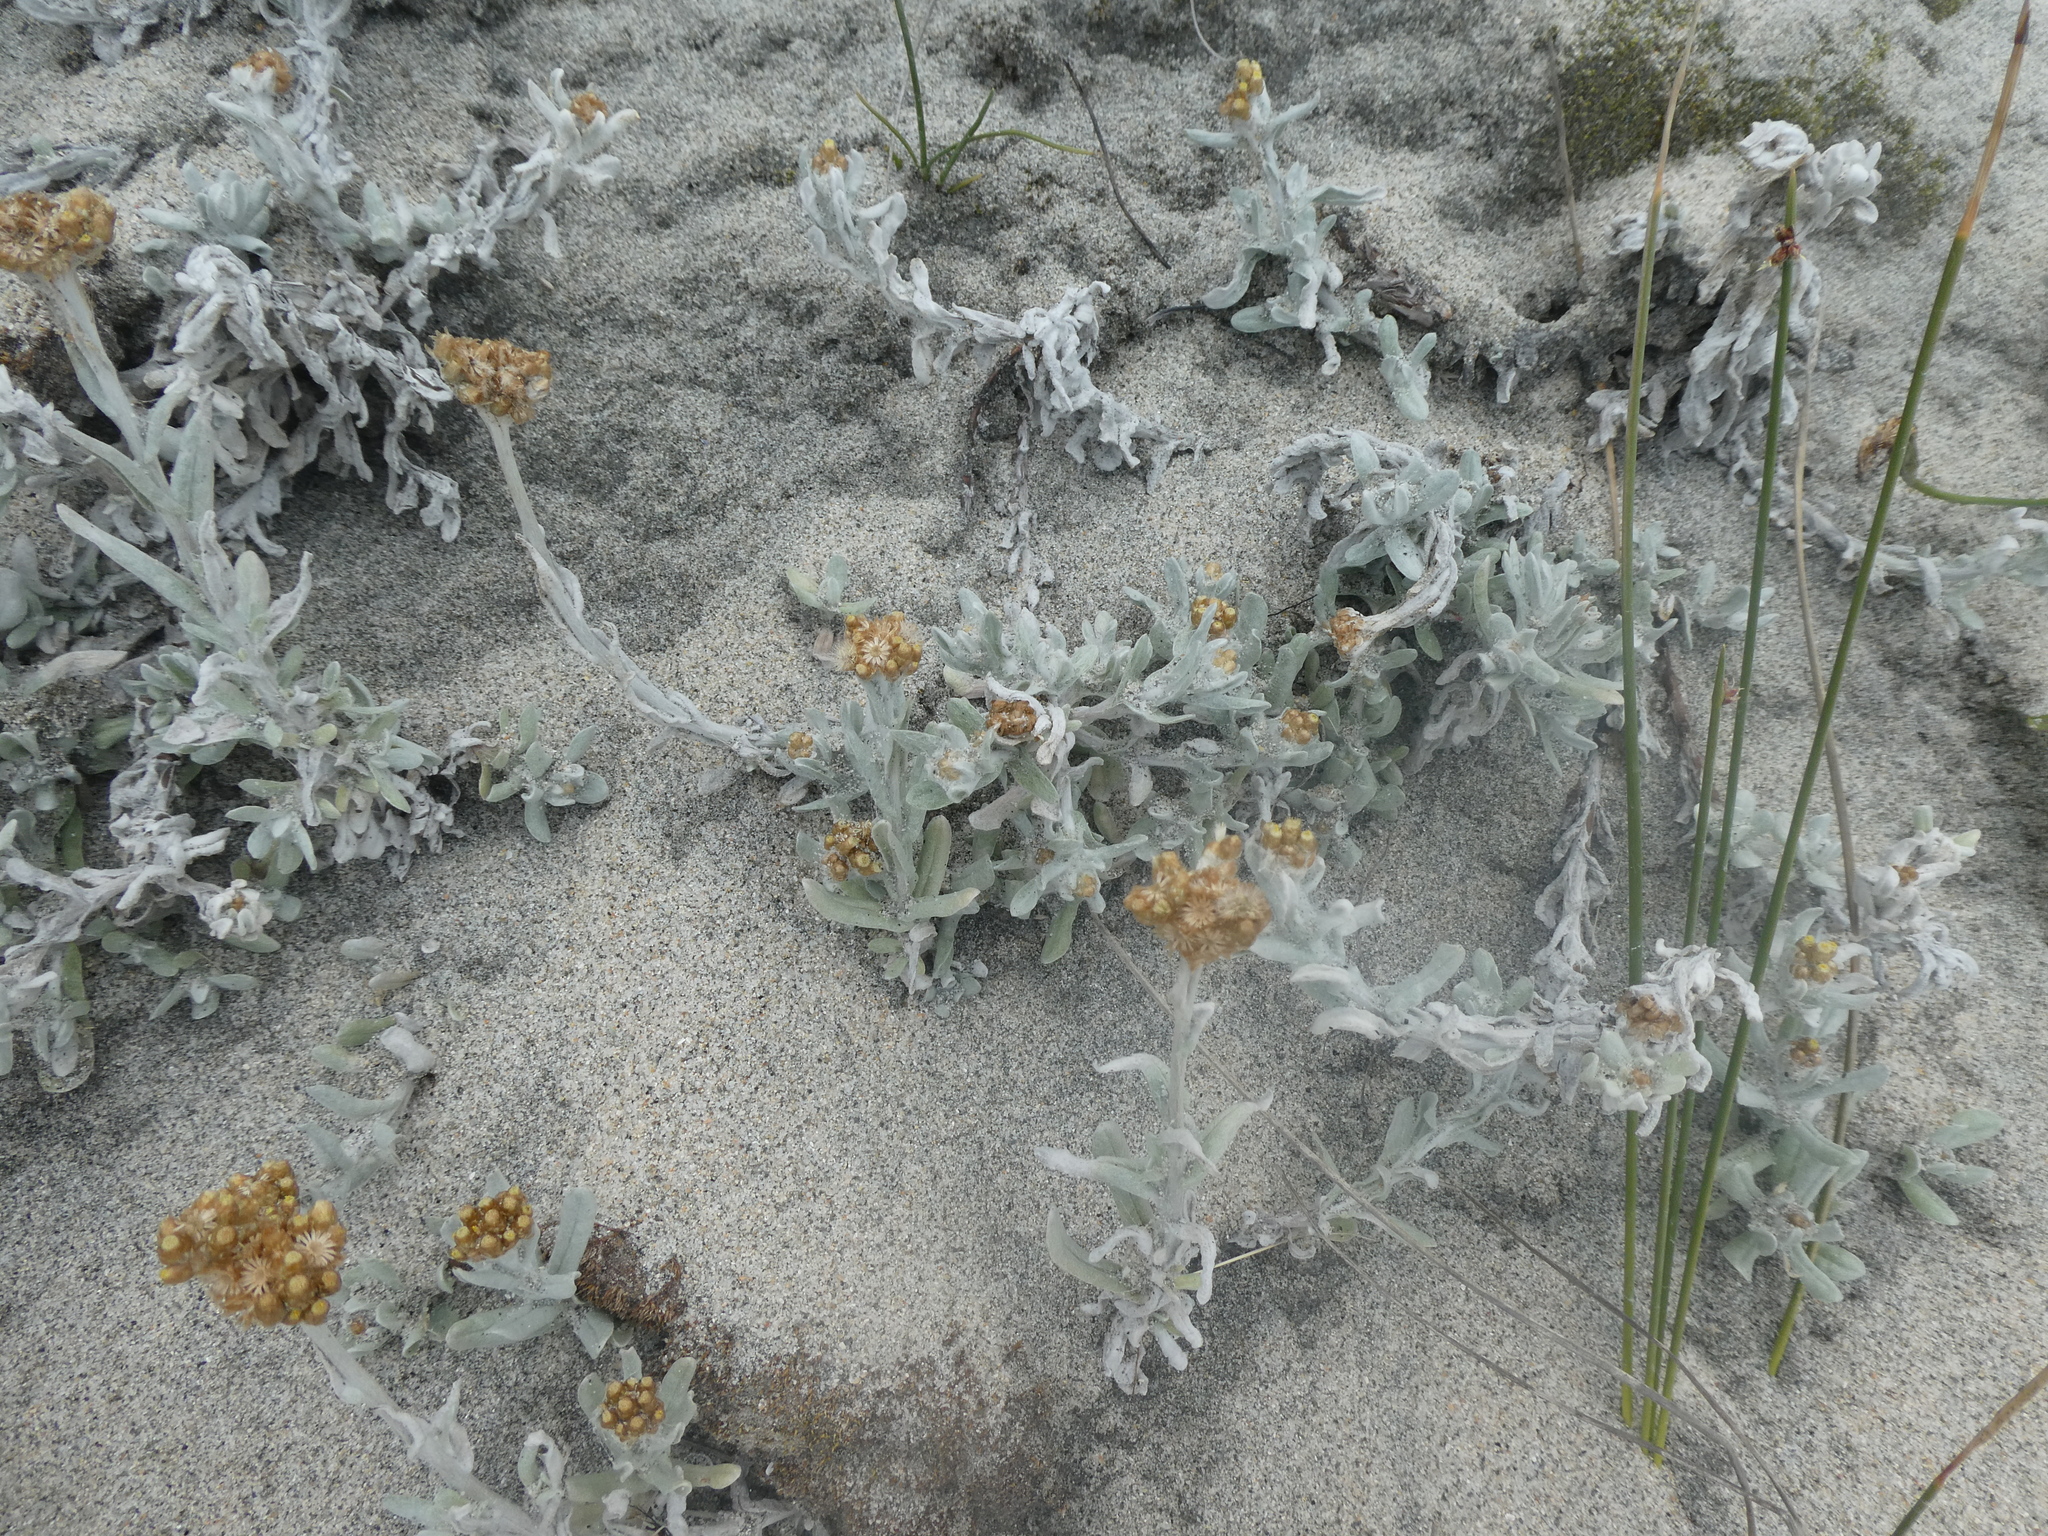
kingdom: Plantae
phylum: Tracheophyta
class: Magnoliopsida
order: Asterales
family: Asteraceae
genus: Pseudognaphalium
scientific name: Pseudognaphalium
